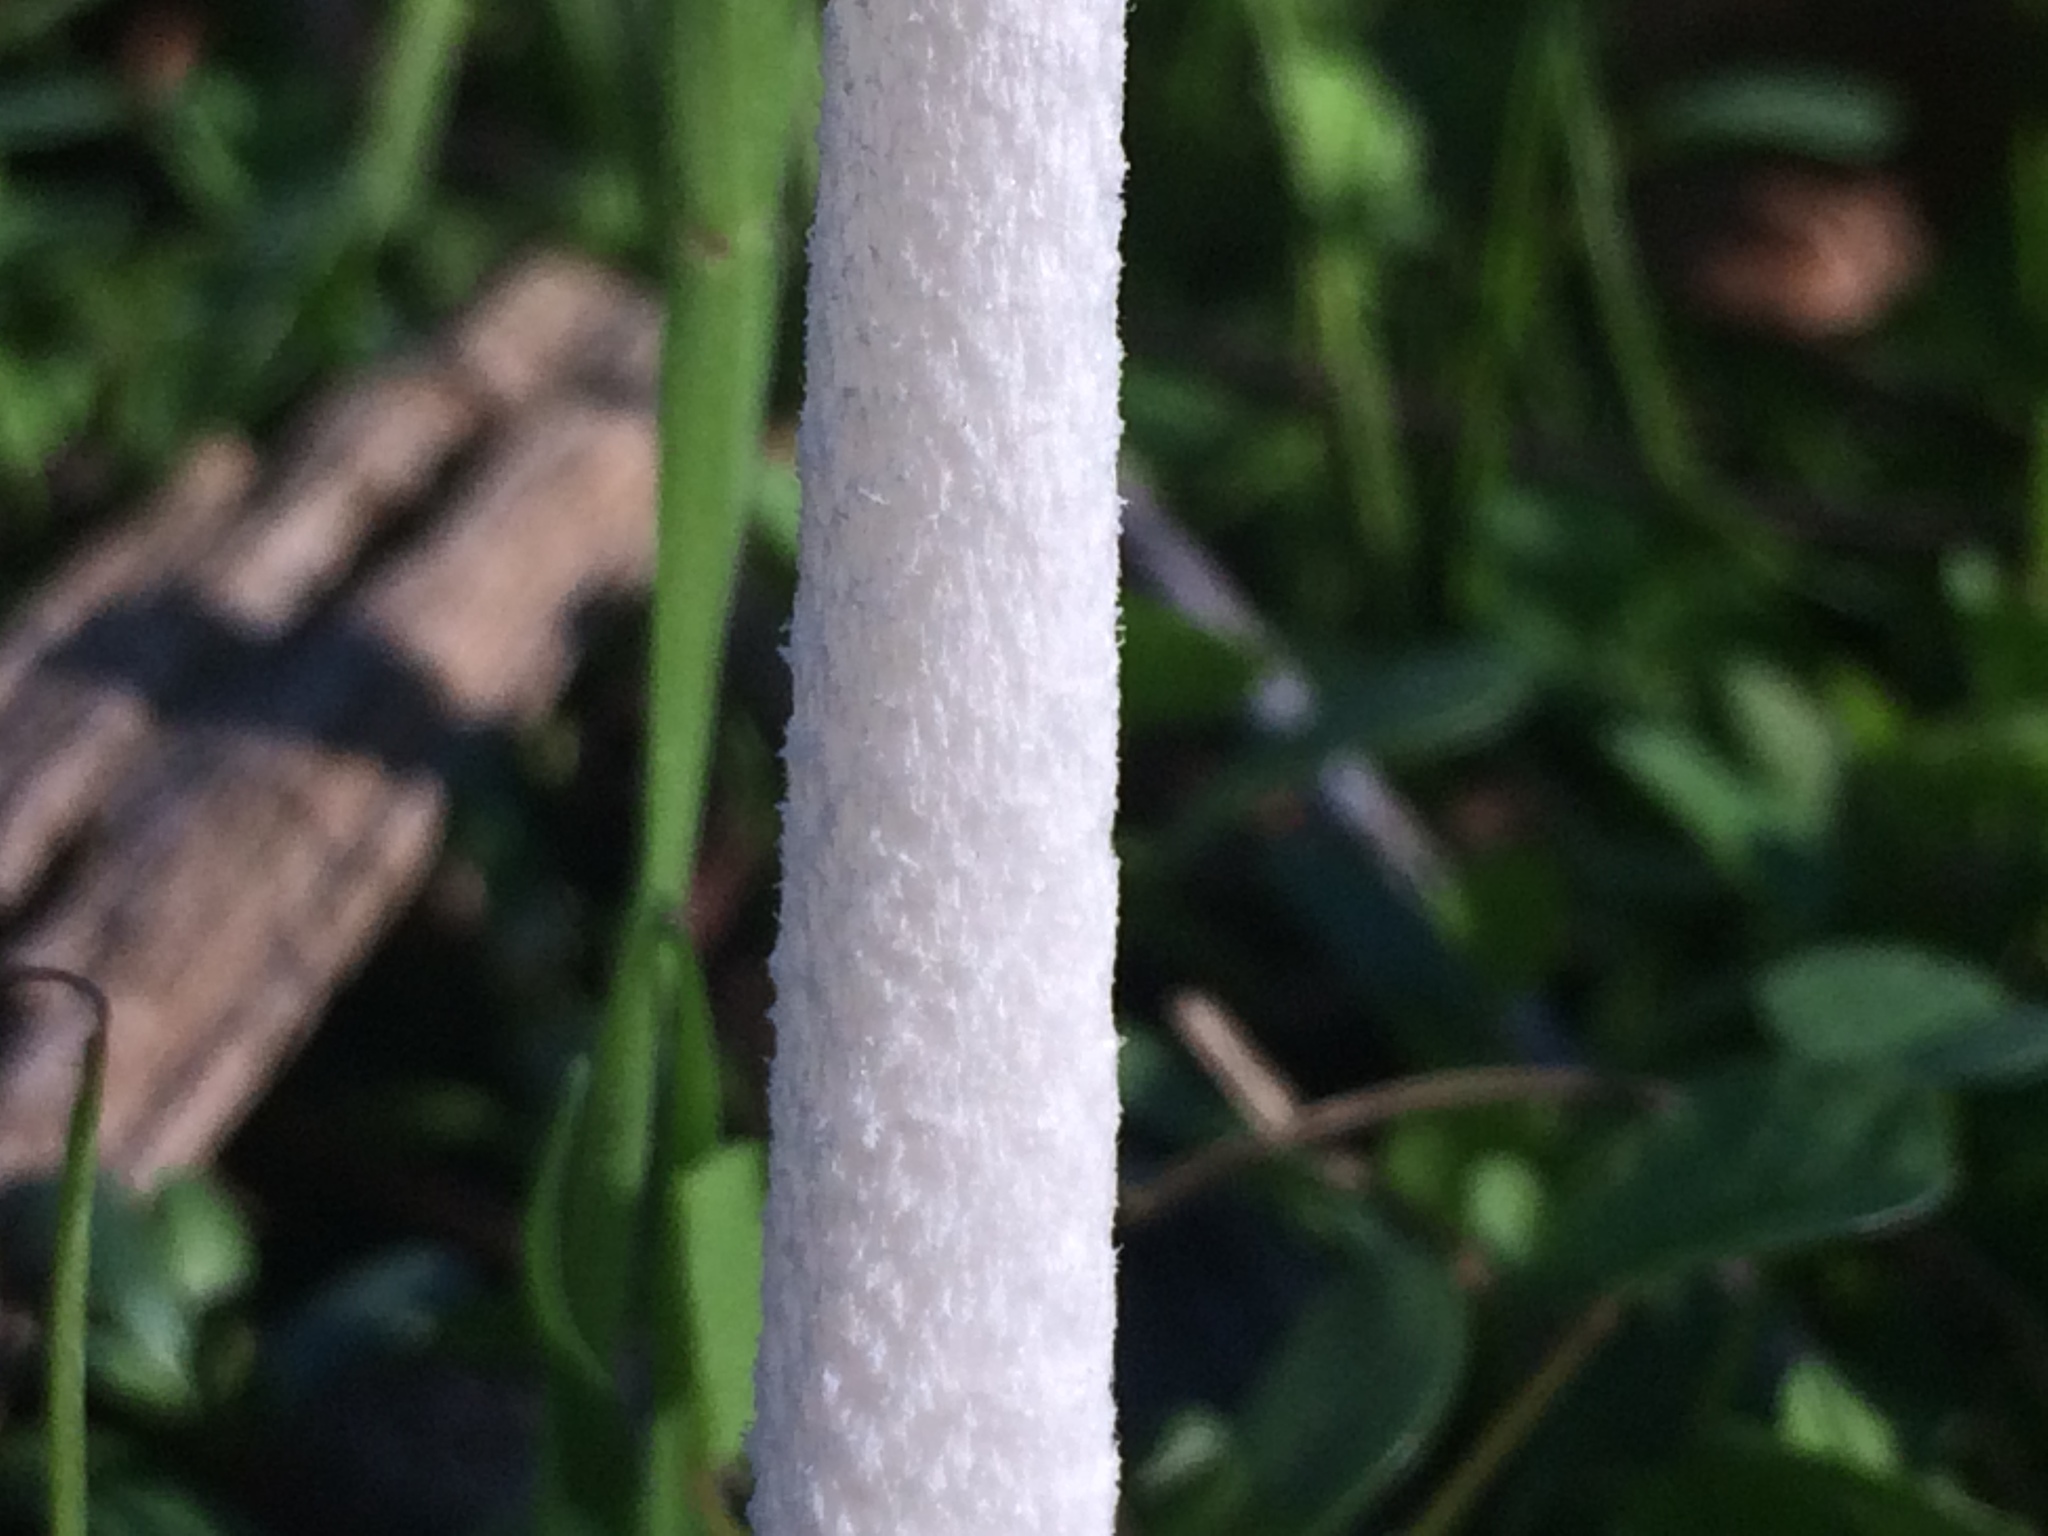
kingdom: Fungi
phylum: Basidiomycota
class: Agaricomycetes
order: Agaricales
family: Psathyrellaceae
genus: Coprinopsis
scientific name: Coprinopsis lagopus
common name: Hare'sfoot inkcap
